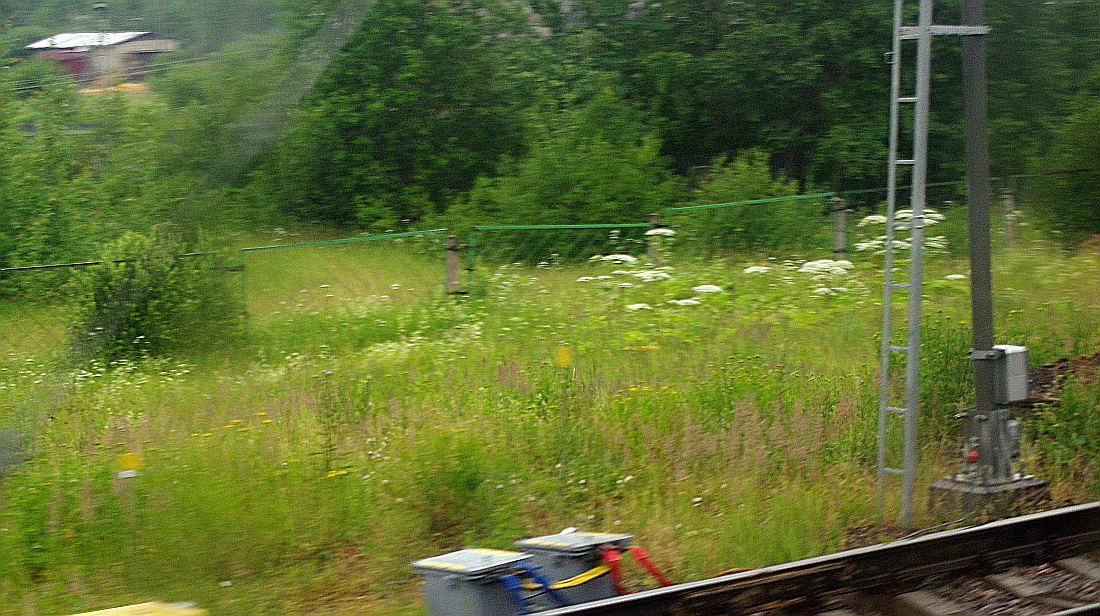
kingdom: Plantae
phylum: Tracheophyta
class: Magnoliopsida
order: Apiales
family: Apiaceae
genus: Heracleum
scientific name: Heracleum sosnowskyi
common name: Sosnowsky's hogweed
